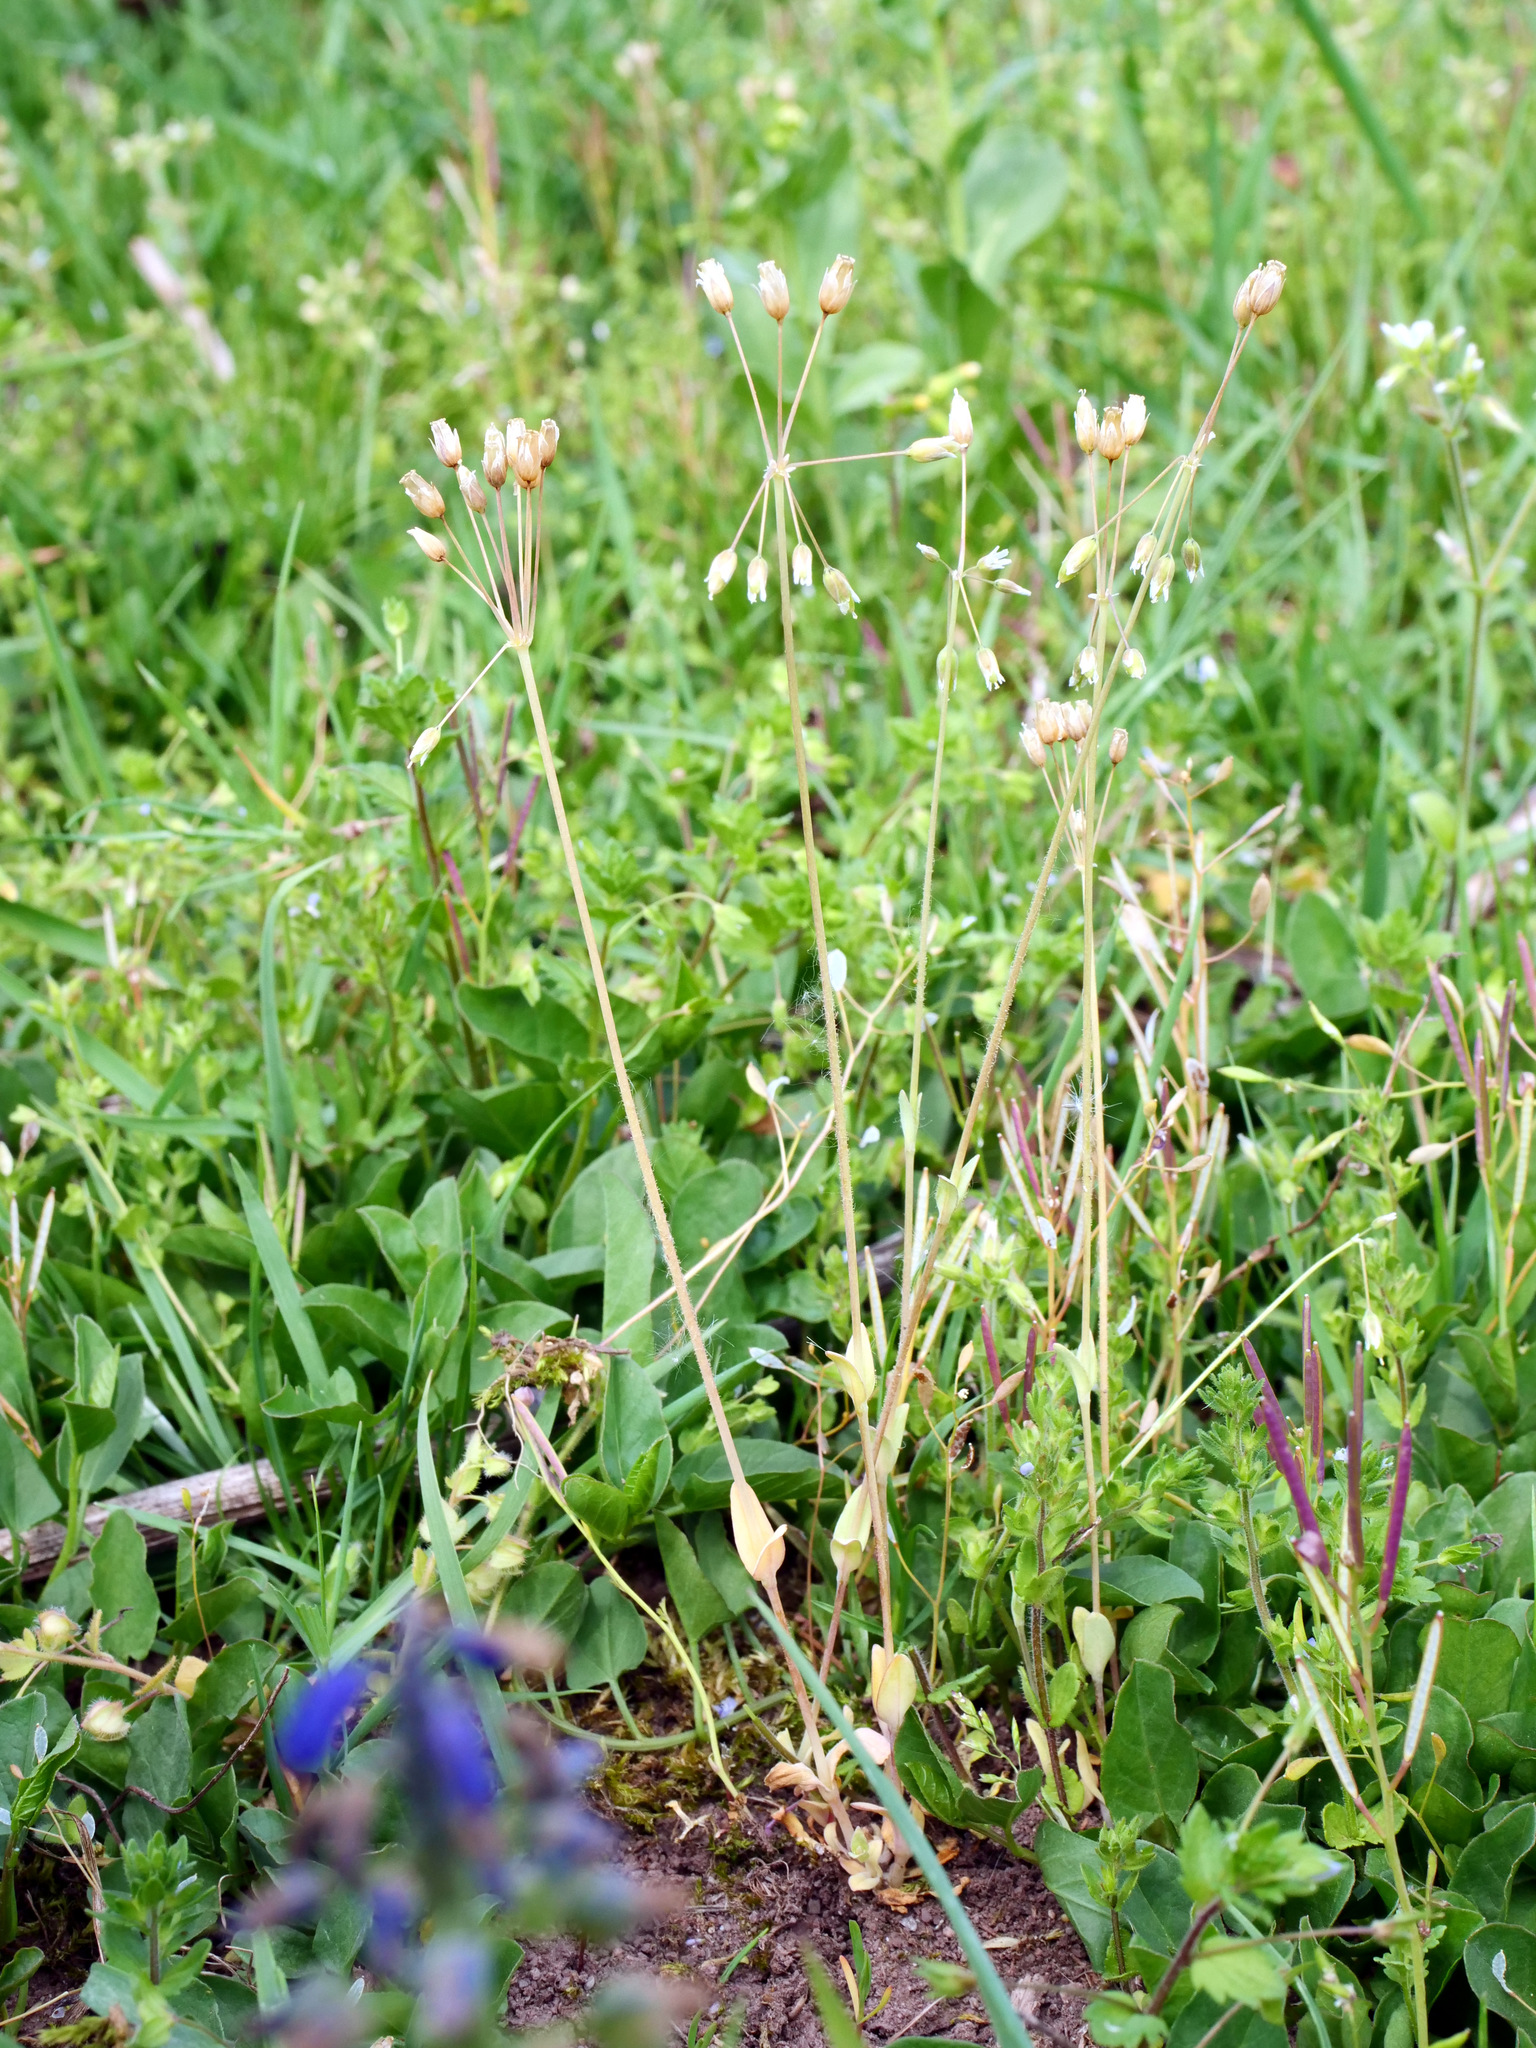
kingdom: Plantae
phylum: Tracheophyta
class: Magnoliopsida
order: Caryophyllales
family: Caryophyllaceae
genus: Holosteum
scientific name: Holosteum umbellatum
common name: Jagged chickweed
